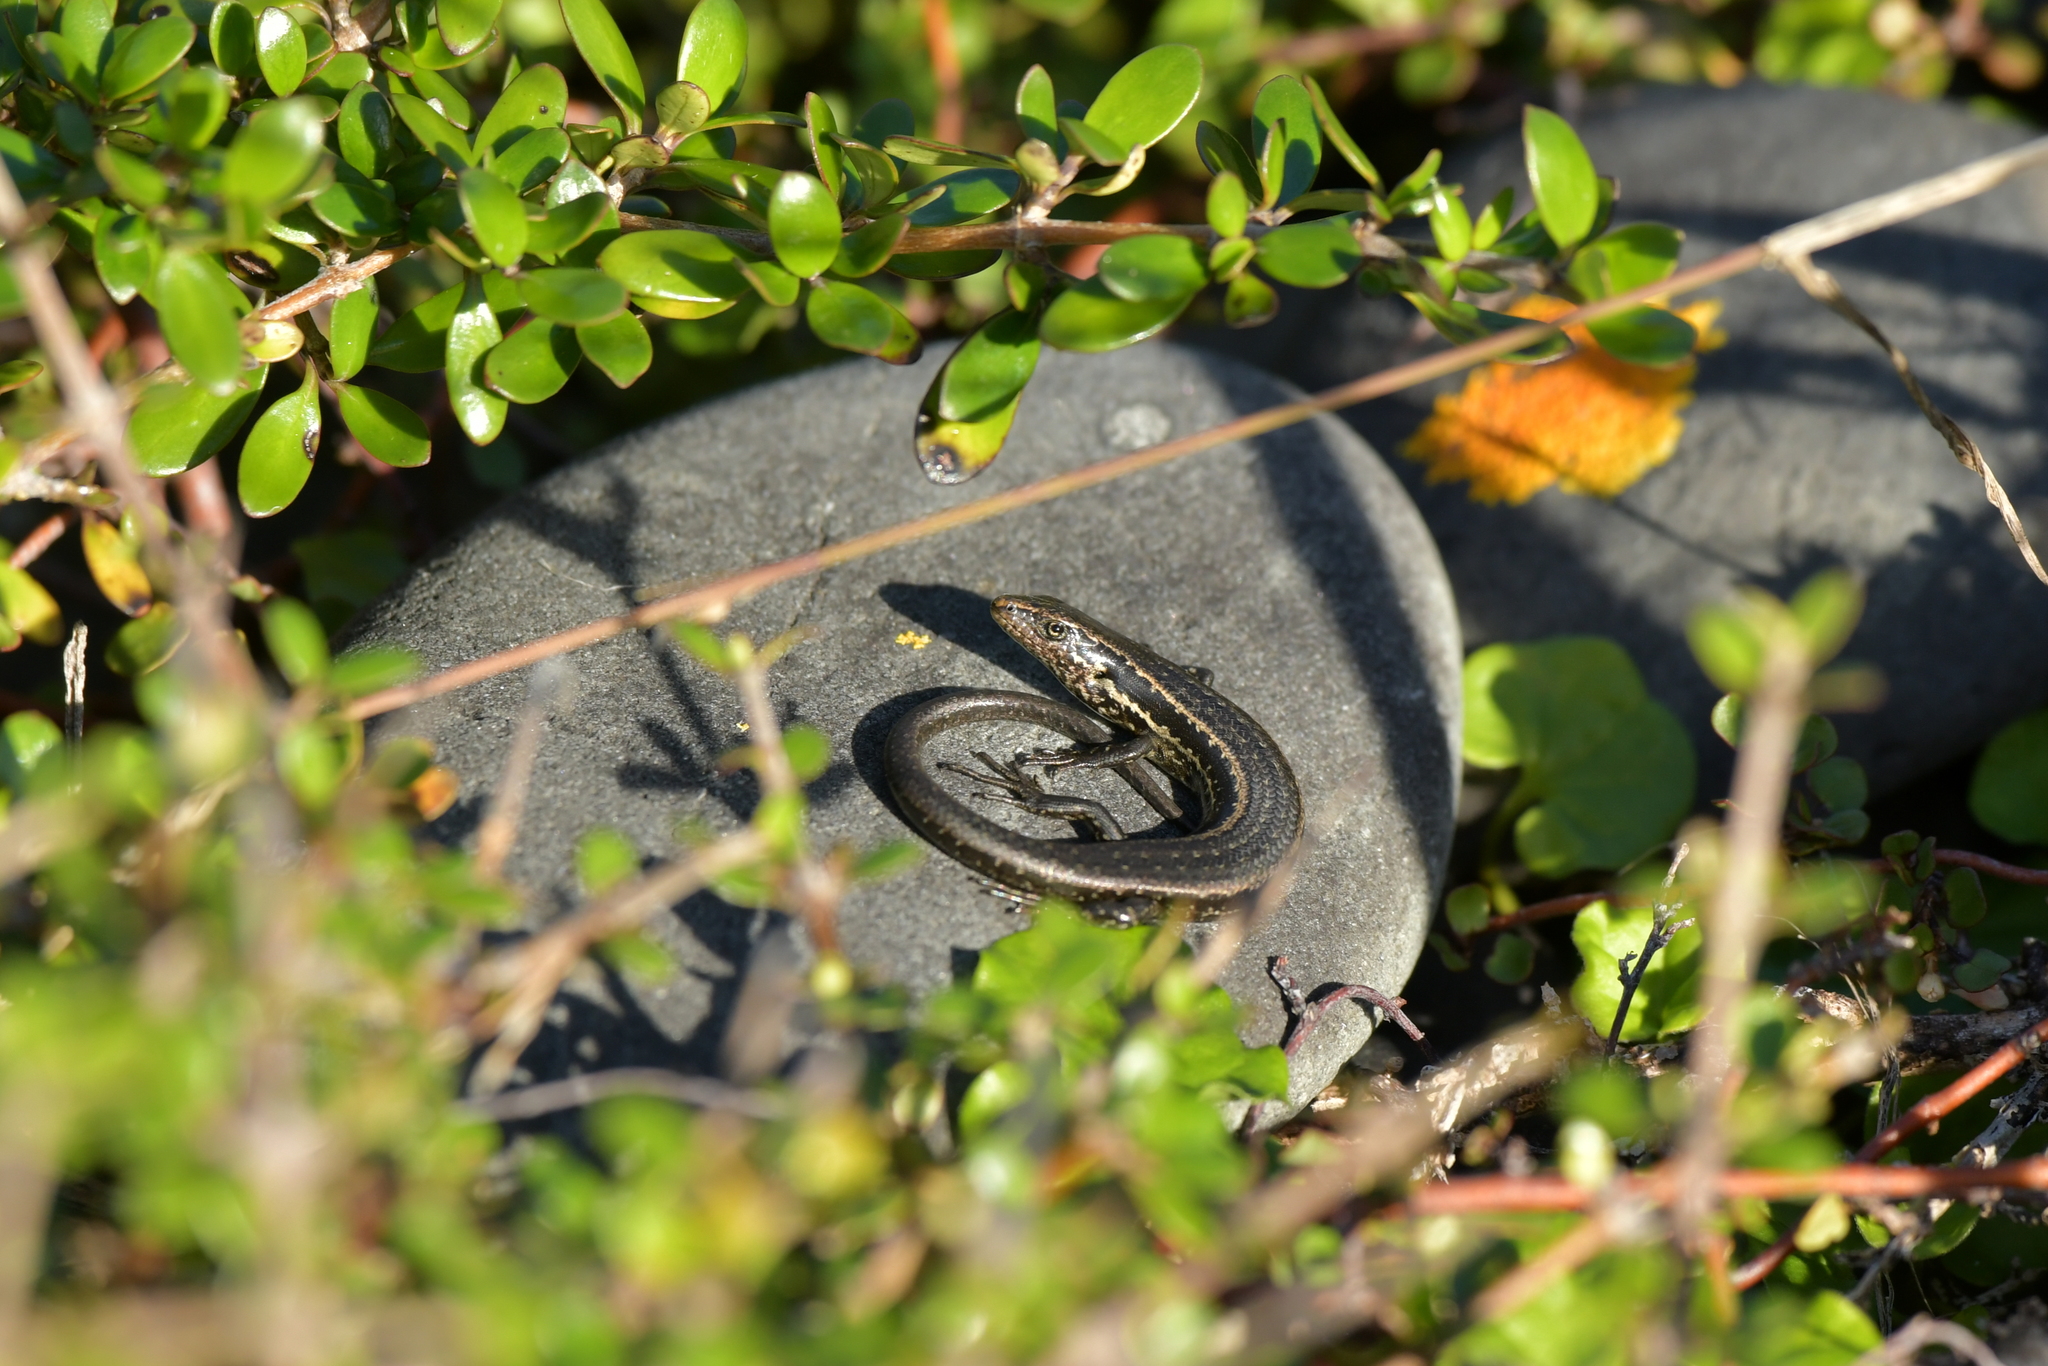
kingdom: Animalia
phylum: Chordata
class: Squamata
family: Scincidae
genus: Oligosoma
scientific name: Oligosoma polychroma
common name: Common new zealand skink
